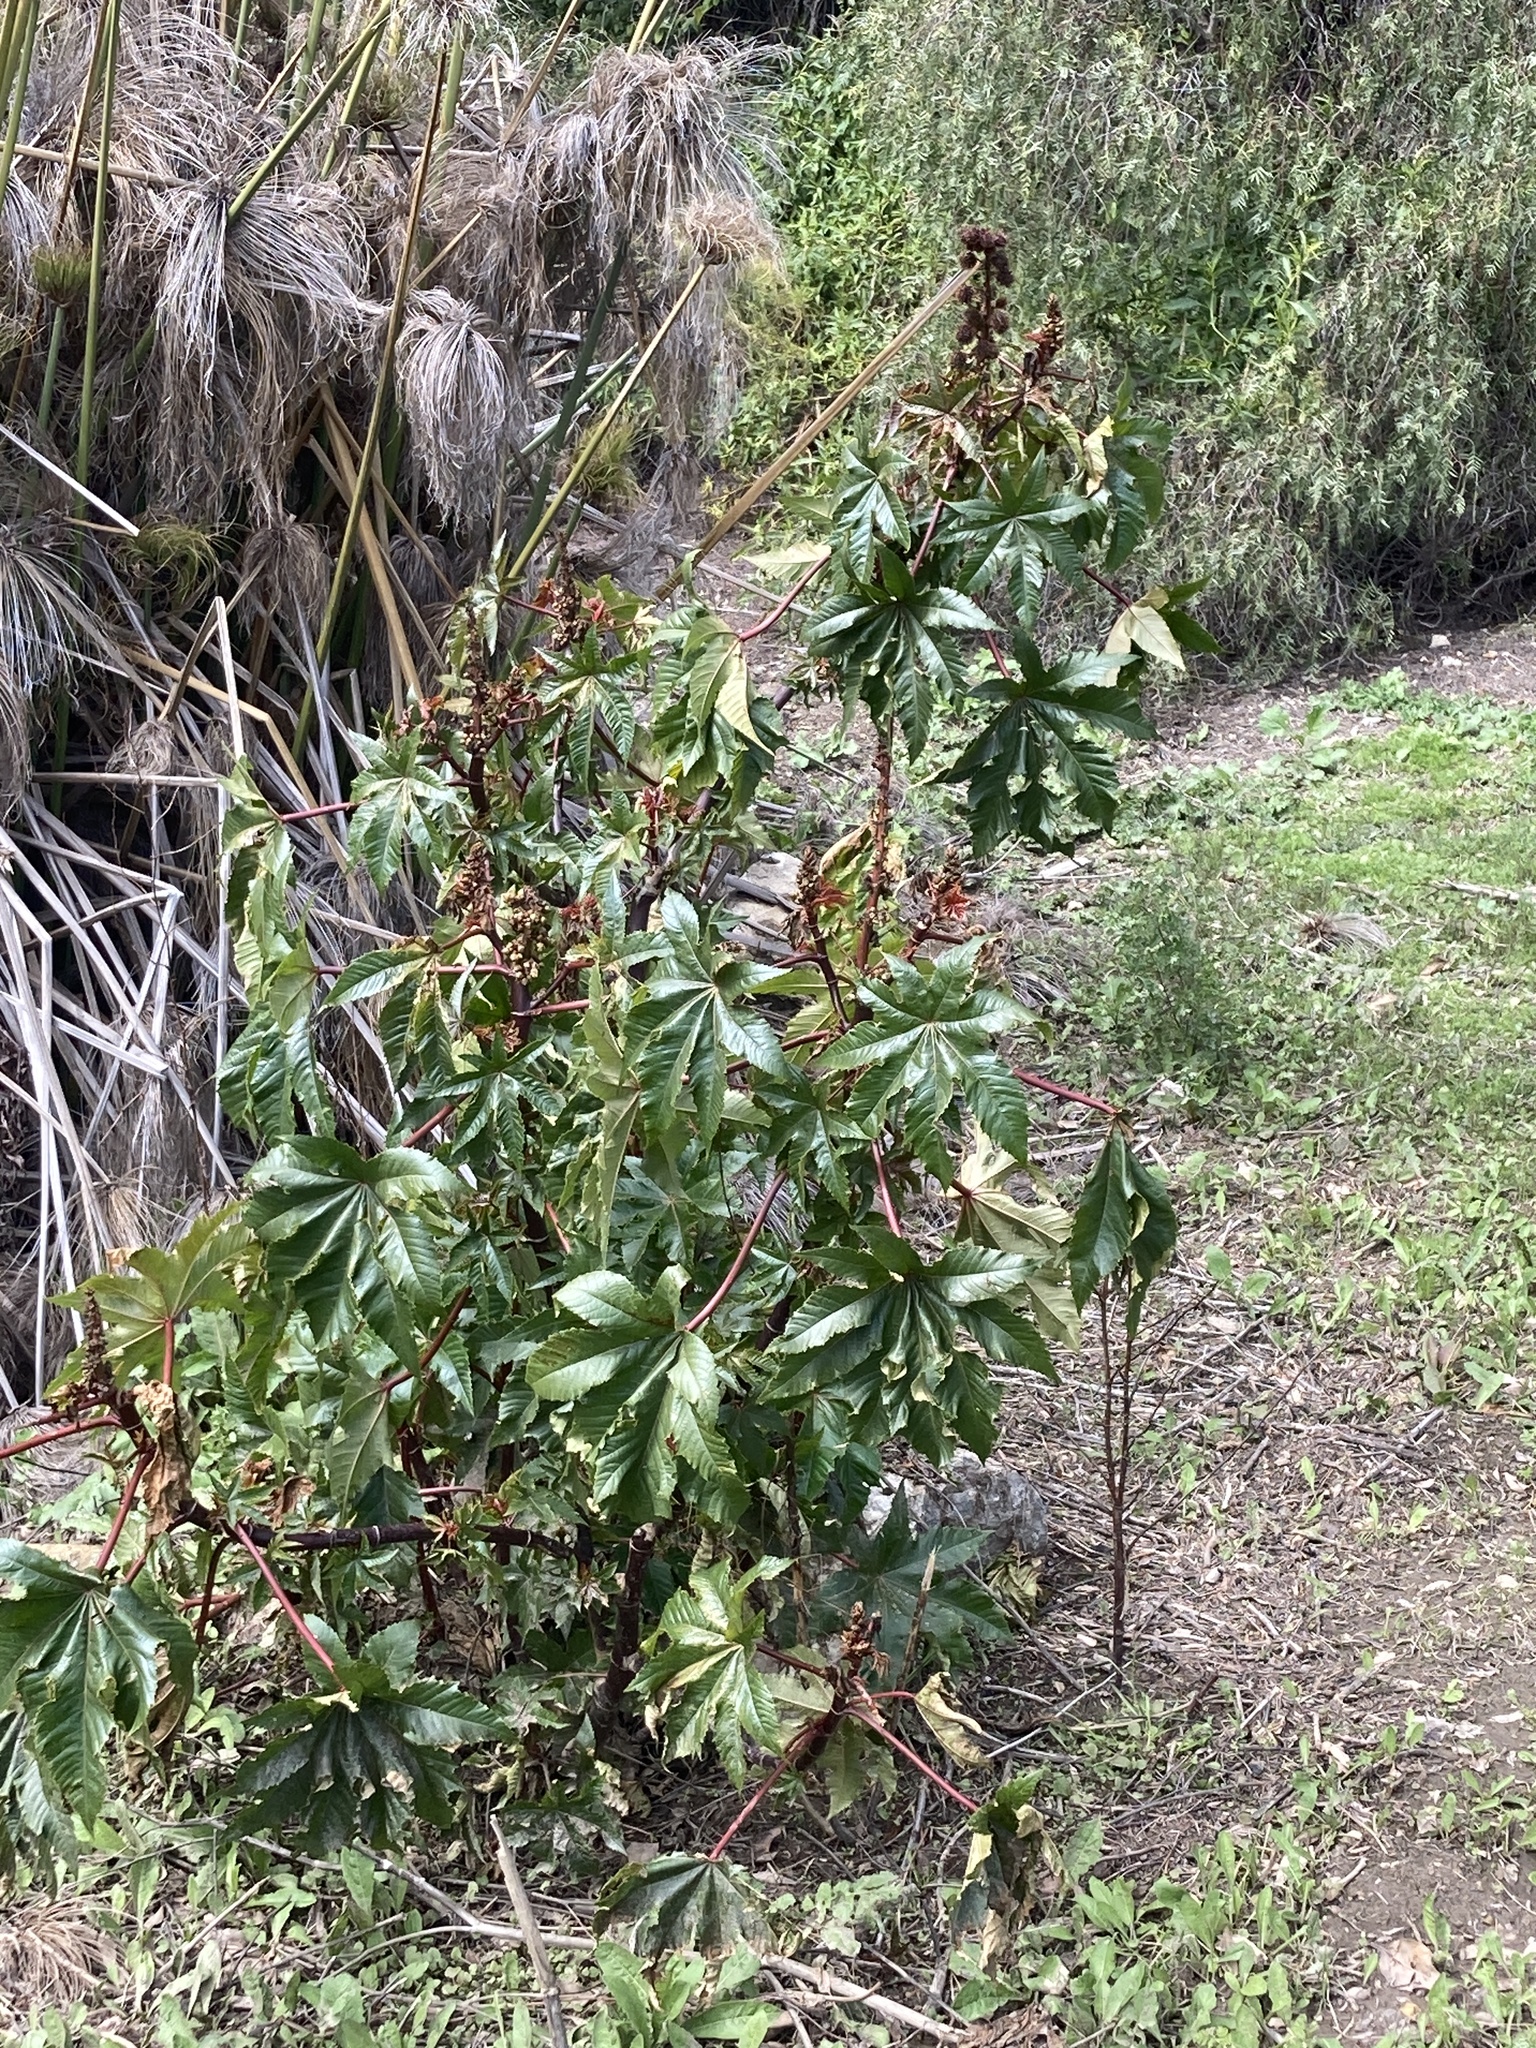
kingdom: Plantae
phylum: Tracheophyta
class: Magnoliopsida
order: Malpighiales
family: Euphorbiaceae
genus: Ricinus
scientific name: Ricinus communis
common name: Castor-oil-plant
